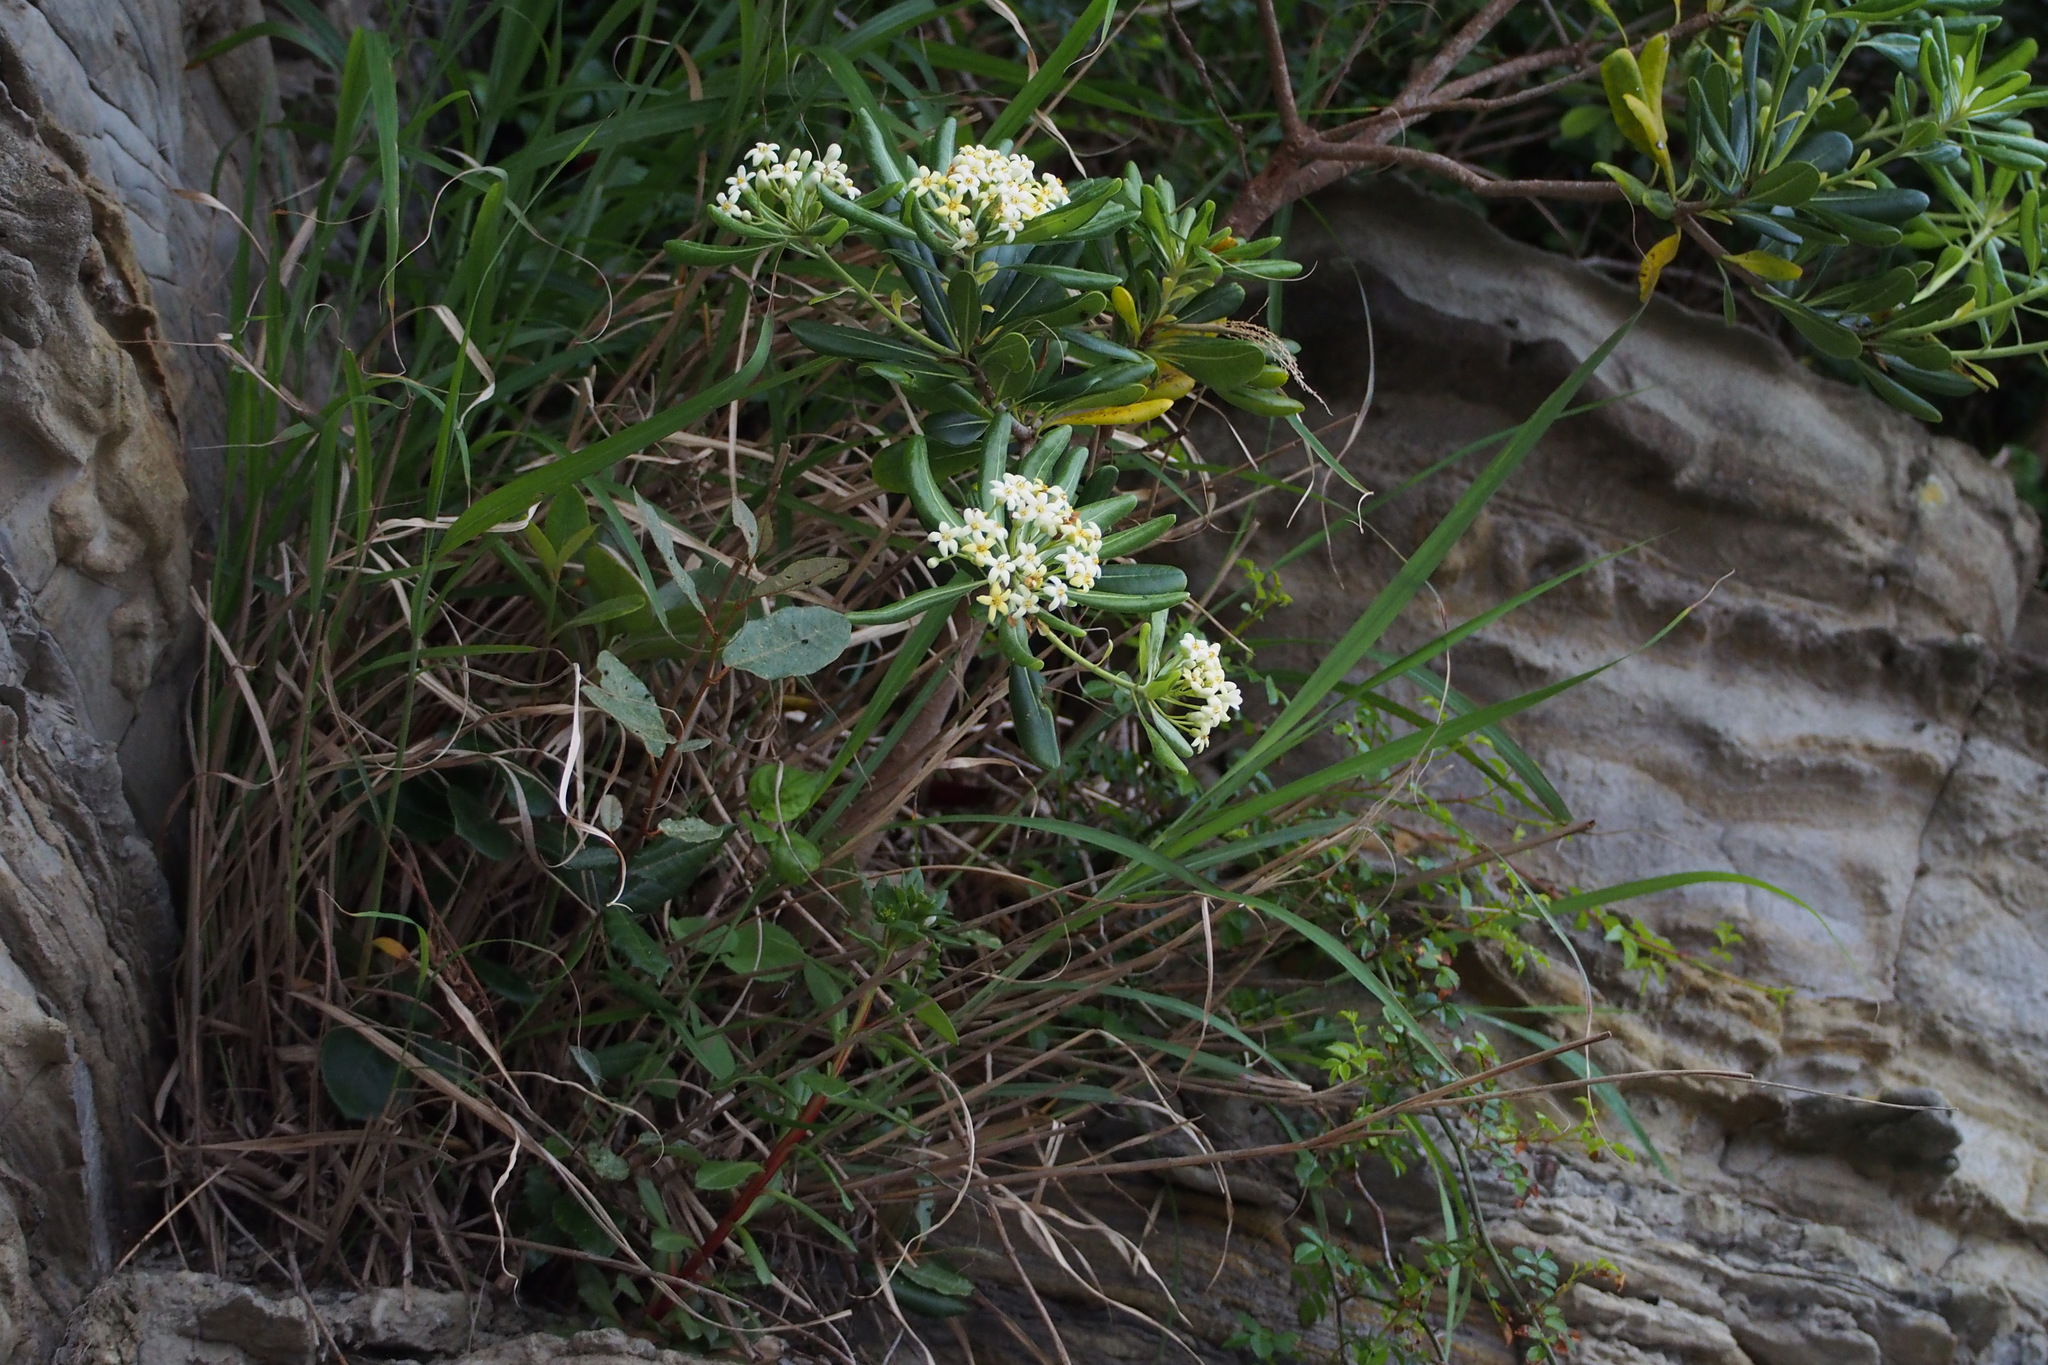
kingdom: Plantae
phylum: Tracheophyta
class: Magnoliopsida
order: Apiales
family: Pittosporaceae
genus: Pittosporum
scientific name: Pittosporum tobira
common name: Japanese cheesewood
